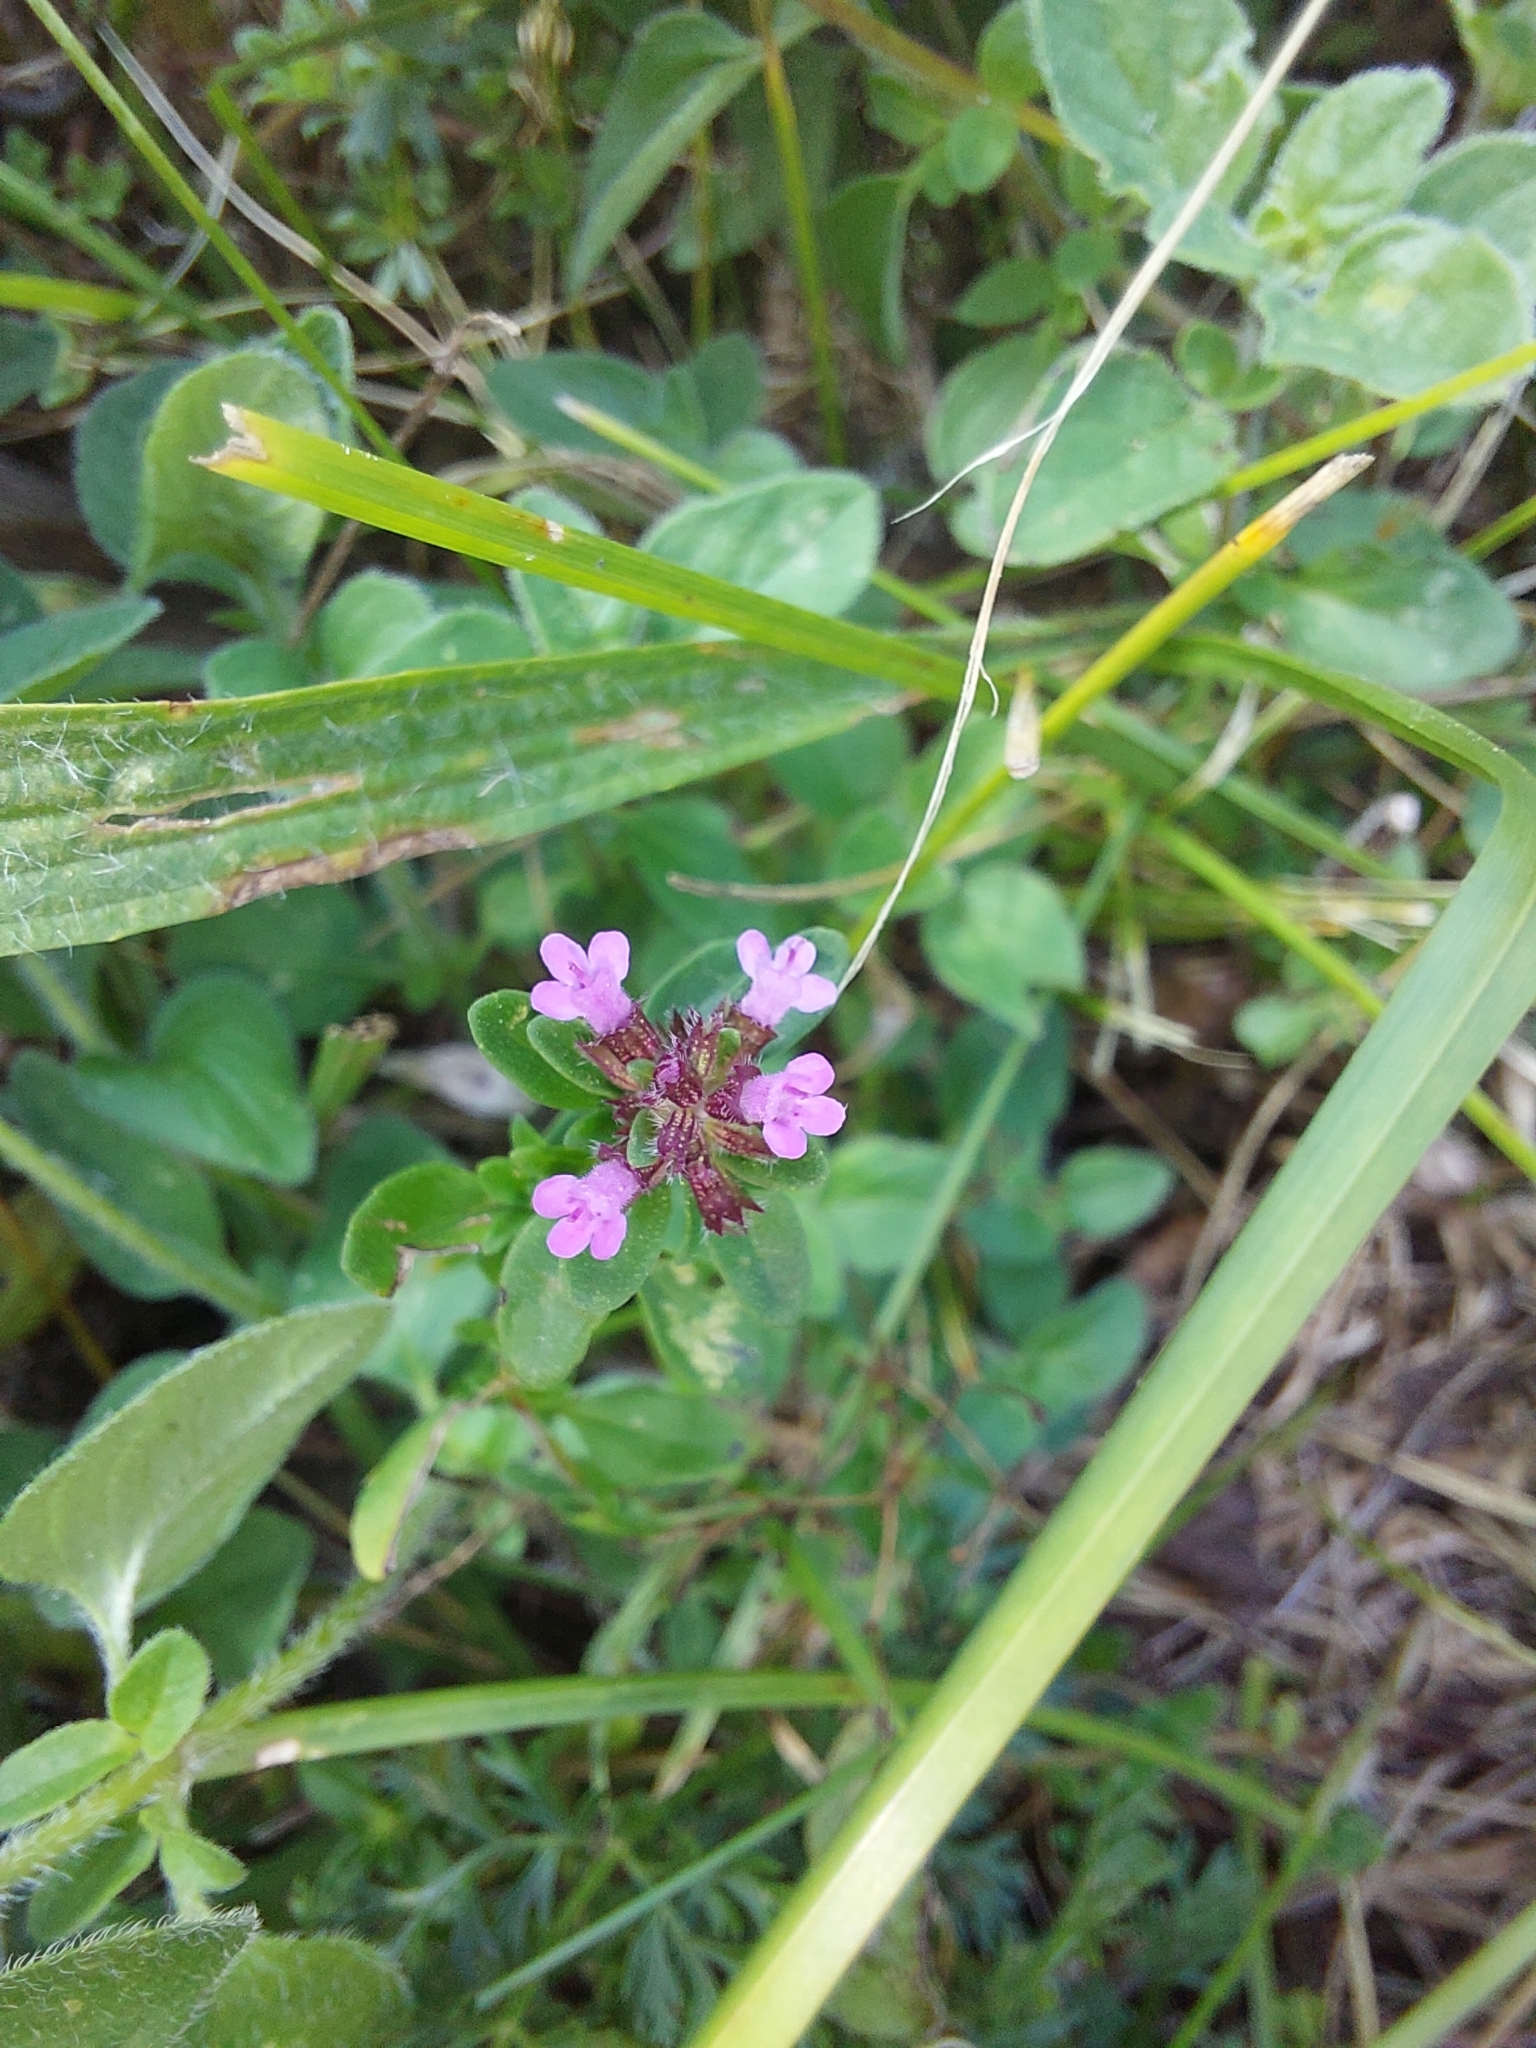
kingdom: Plantae
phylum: Tracheophyta
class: Magnoliopsida
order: Lamiales
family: Lamiaceae
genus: Thymus
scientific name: Thymus pulegioides
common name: Large thyme
